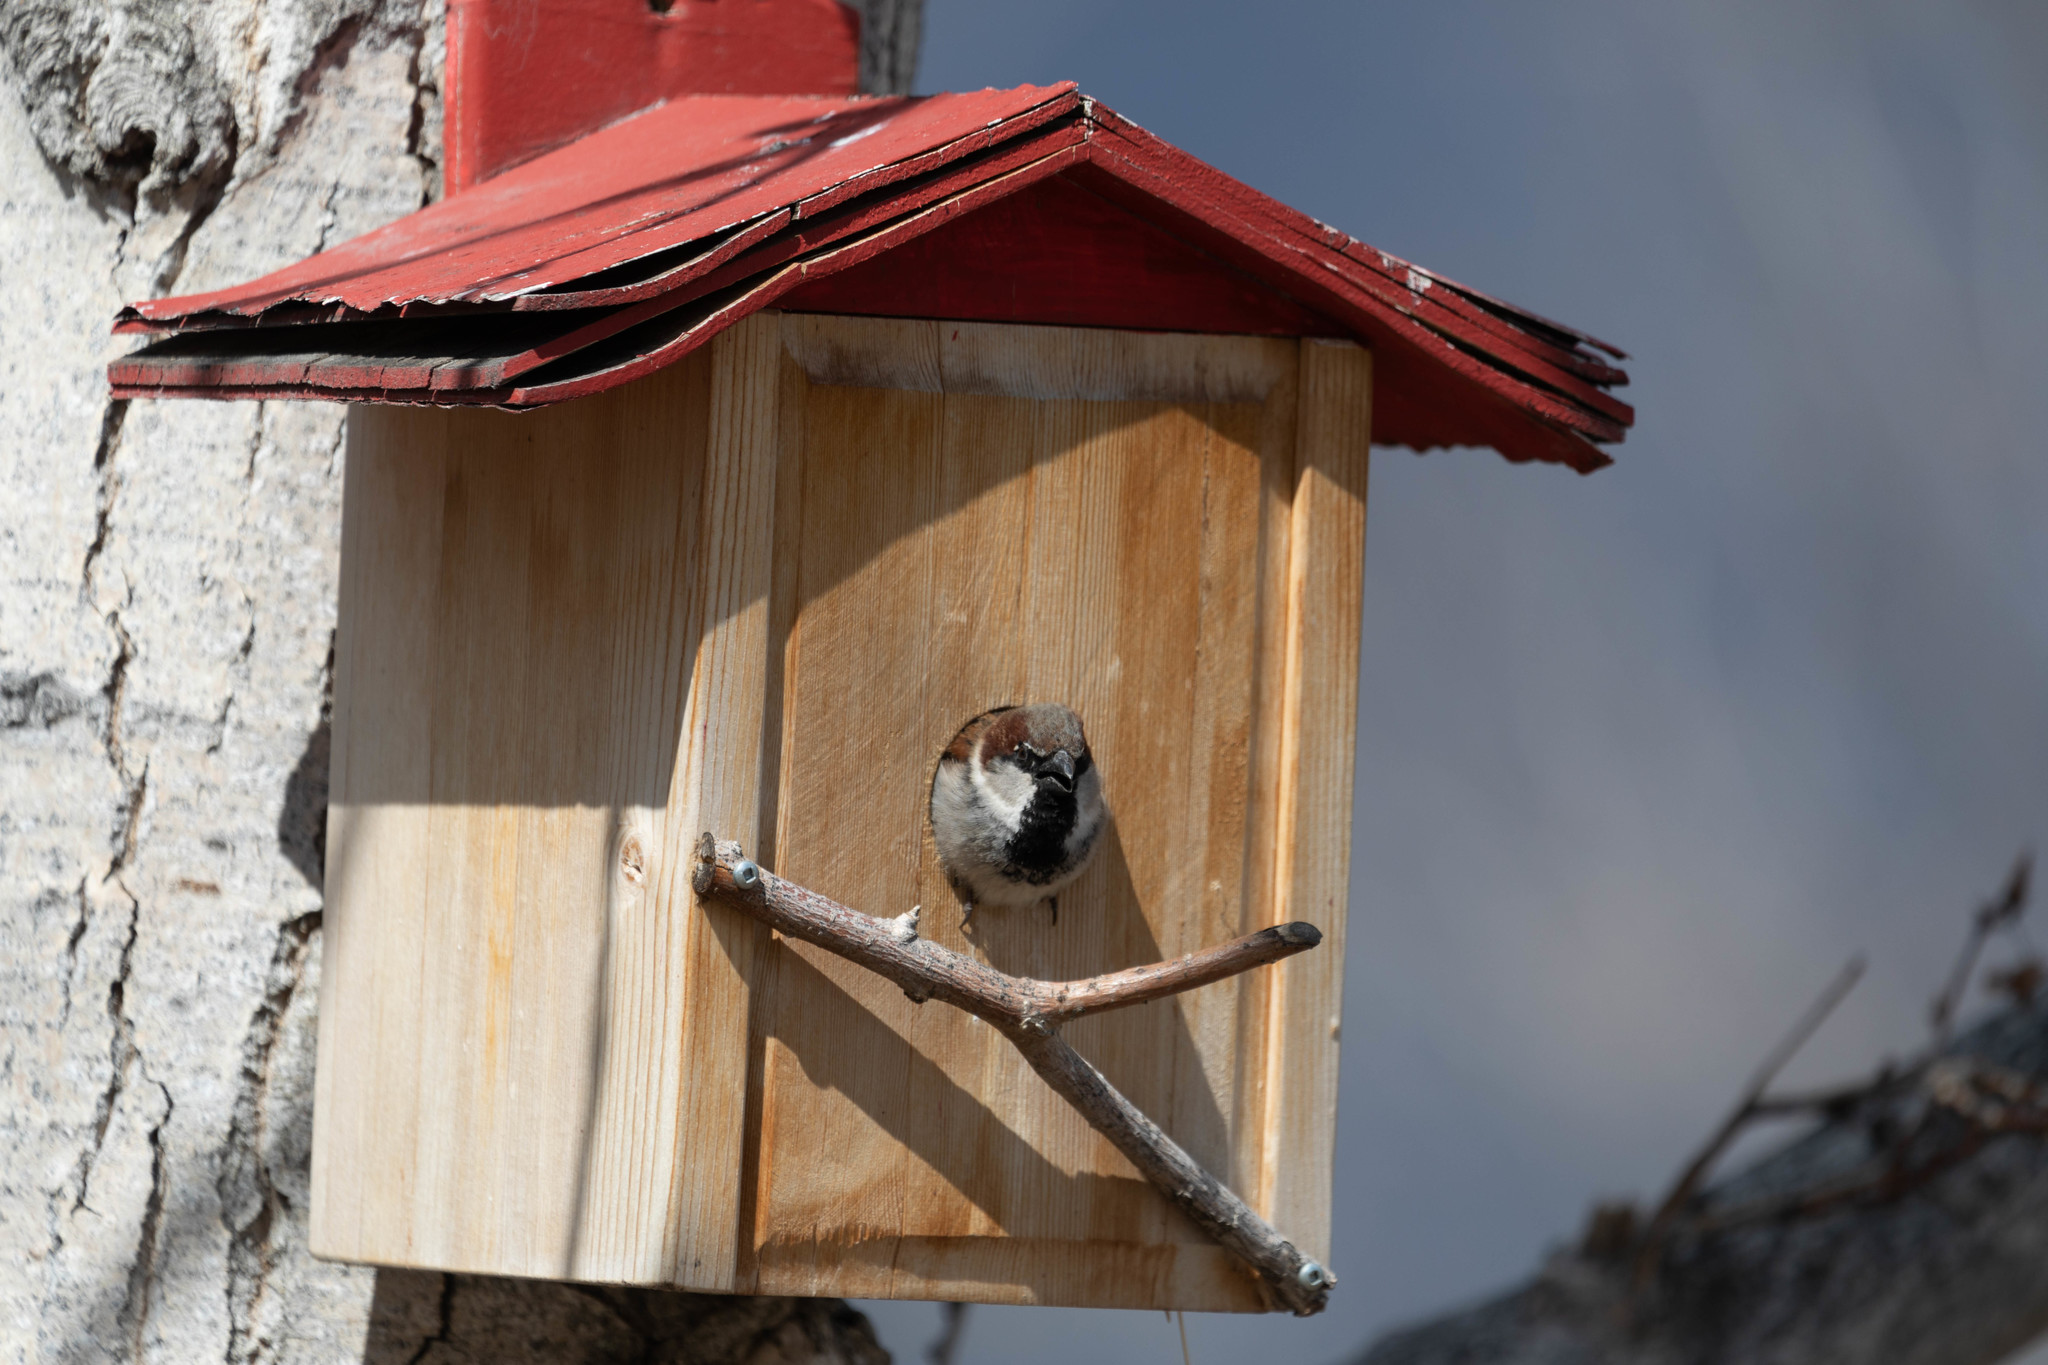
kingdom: Animalia
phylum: Chordata
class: Aves
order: Passeriformes
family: Passeridae
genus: Passer
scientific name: Passer domesticus
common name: House sparrow
